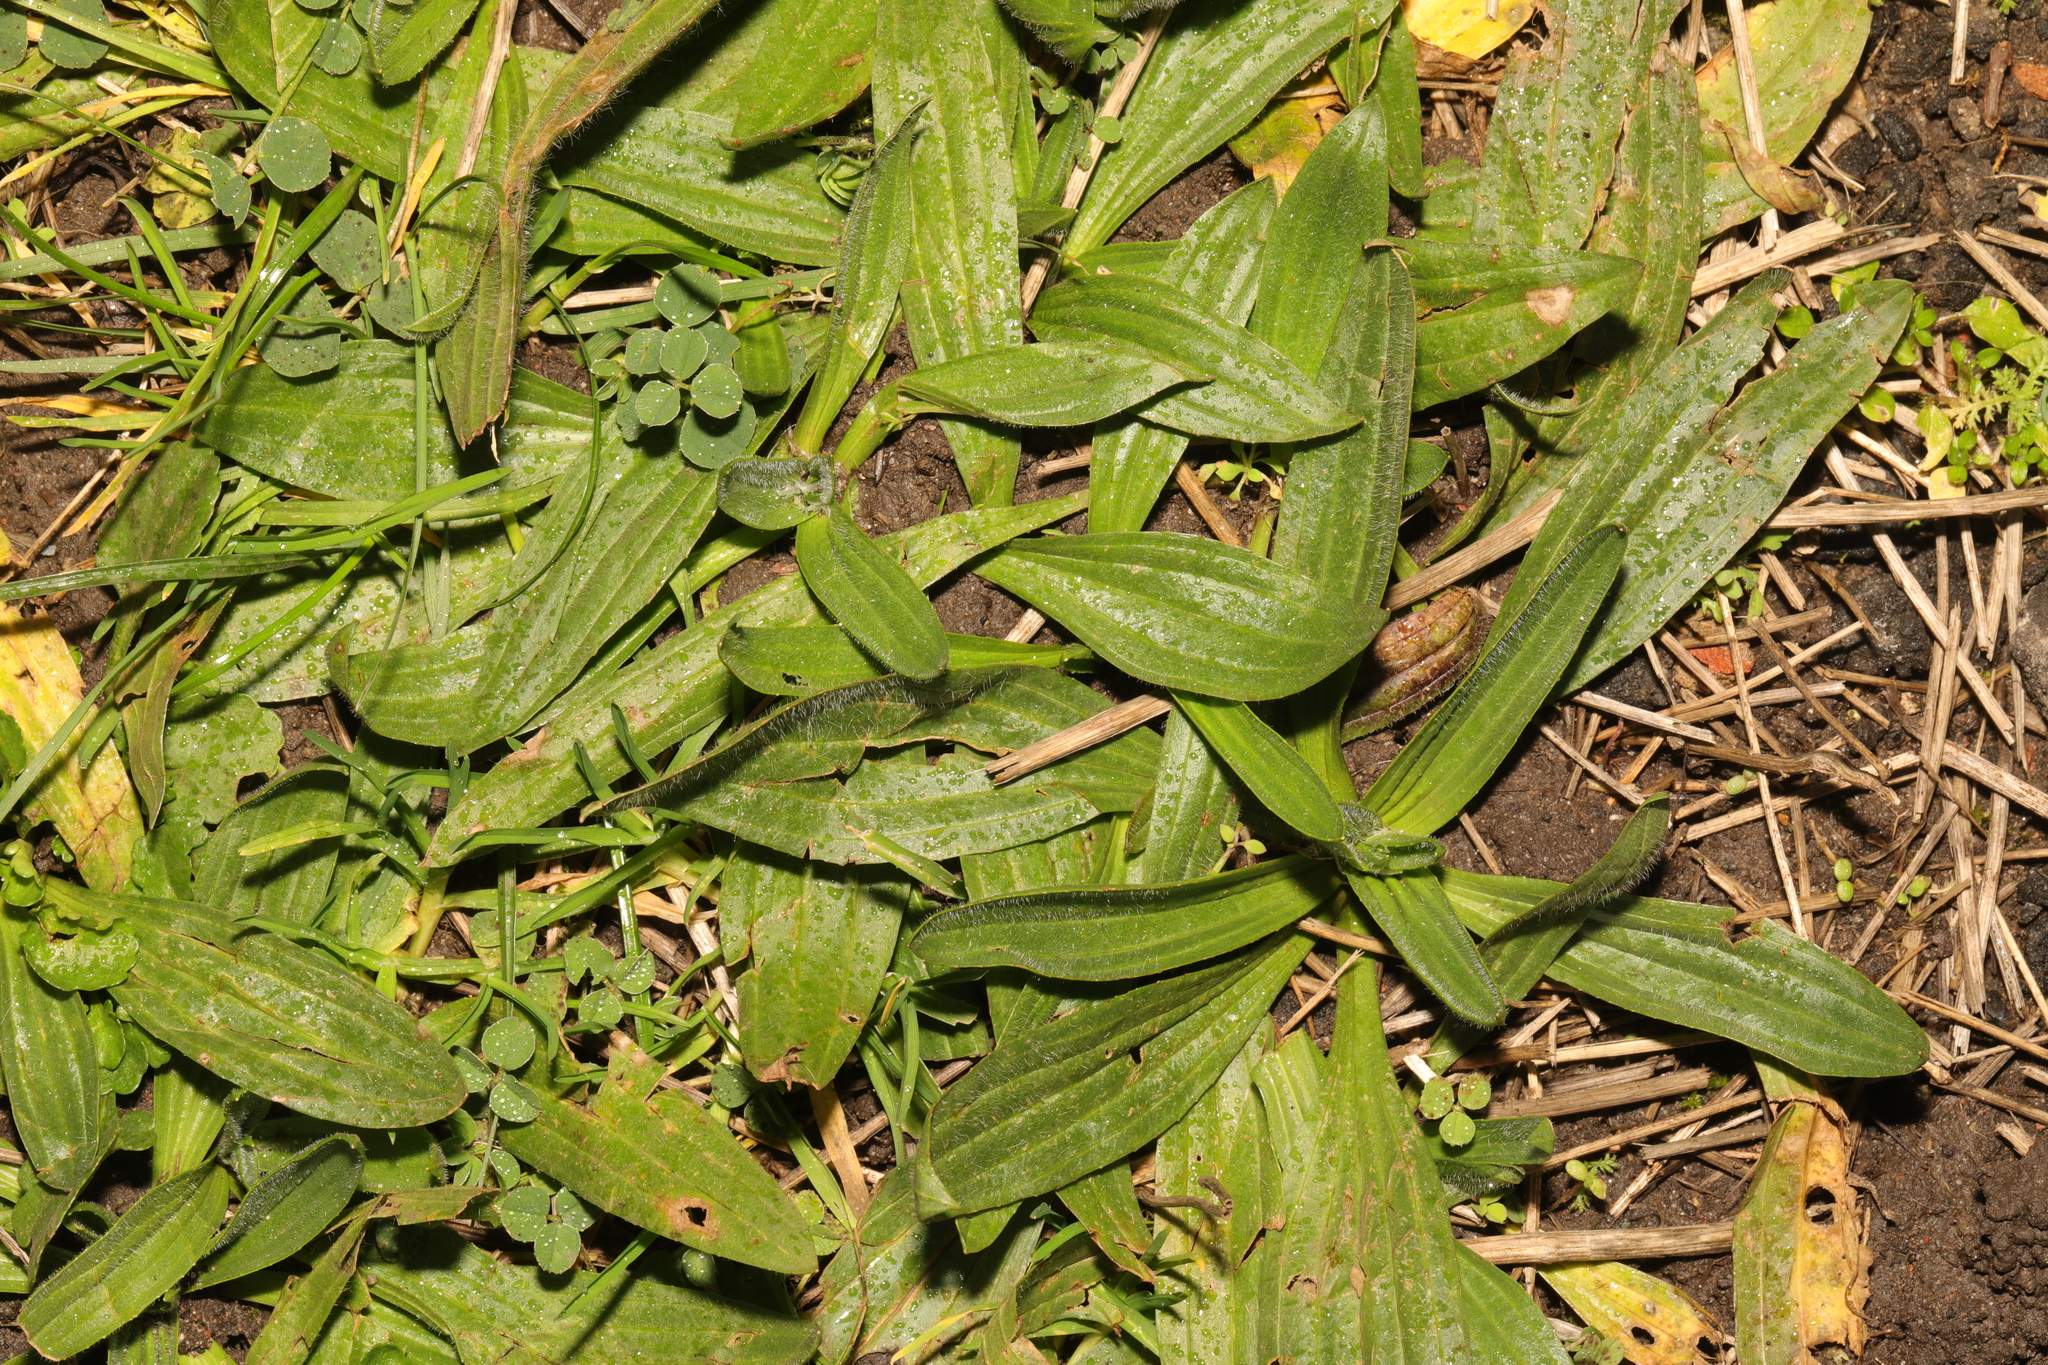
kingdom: Plantae
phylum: Tracheophyta
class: Magnoliopsida
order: Lamiales
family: Plantaginaceae
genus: Plantago
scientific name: Plantago lanceolata
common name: Ribwort plantain
